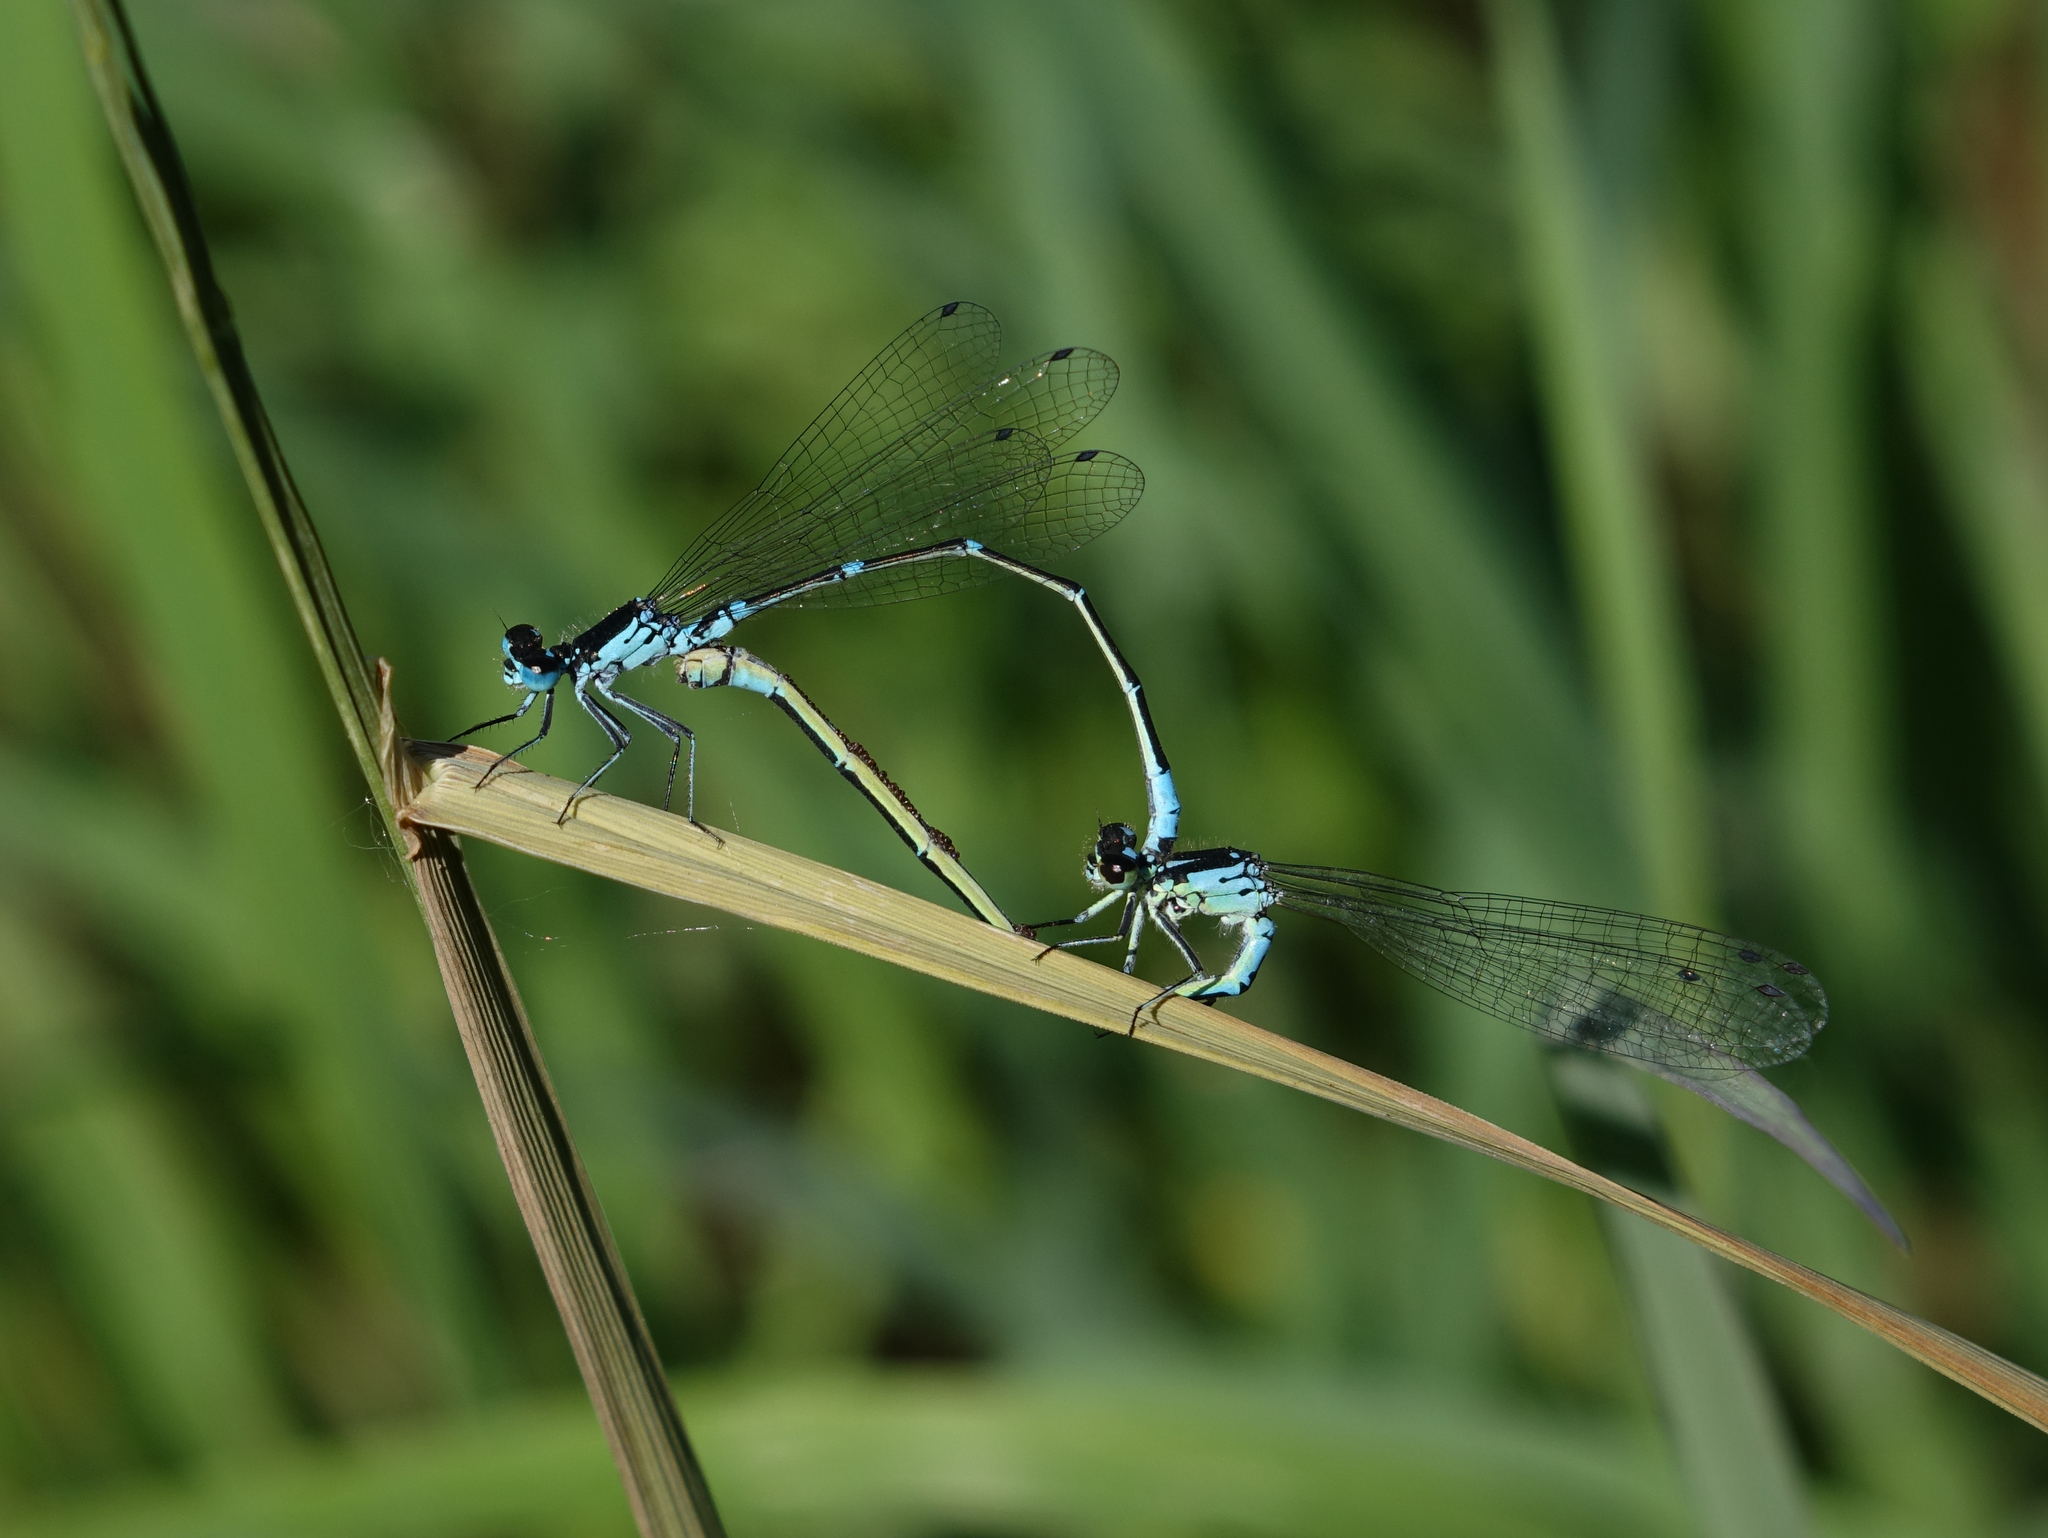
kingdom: Animalia
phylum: Arthropoda
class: Insecta
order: Odonata
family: Coenagrionidae
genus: Coenagrion
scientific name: Coenagrion pulchellum
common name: Variable bluet
